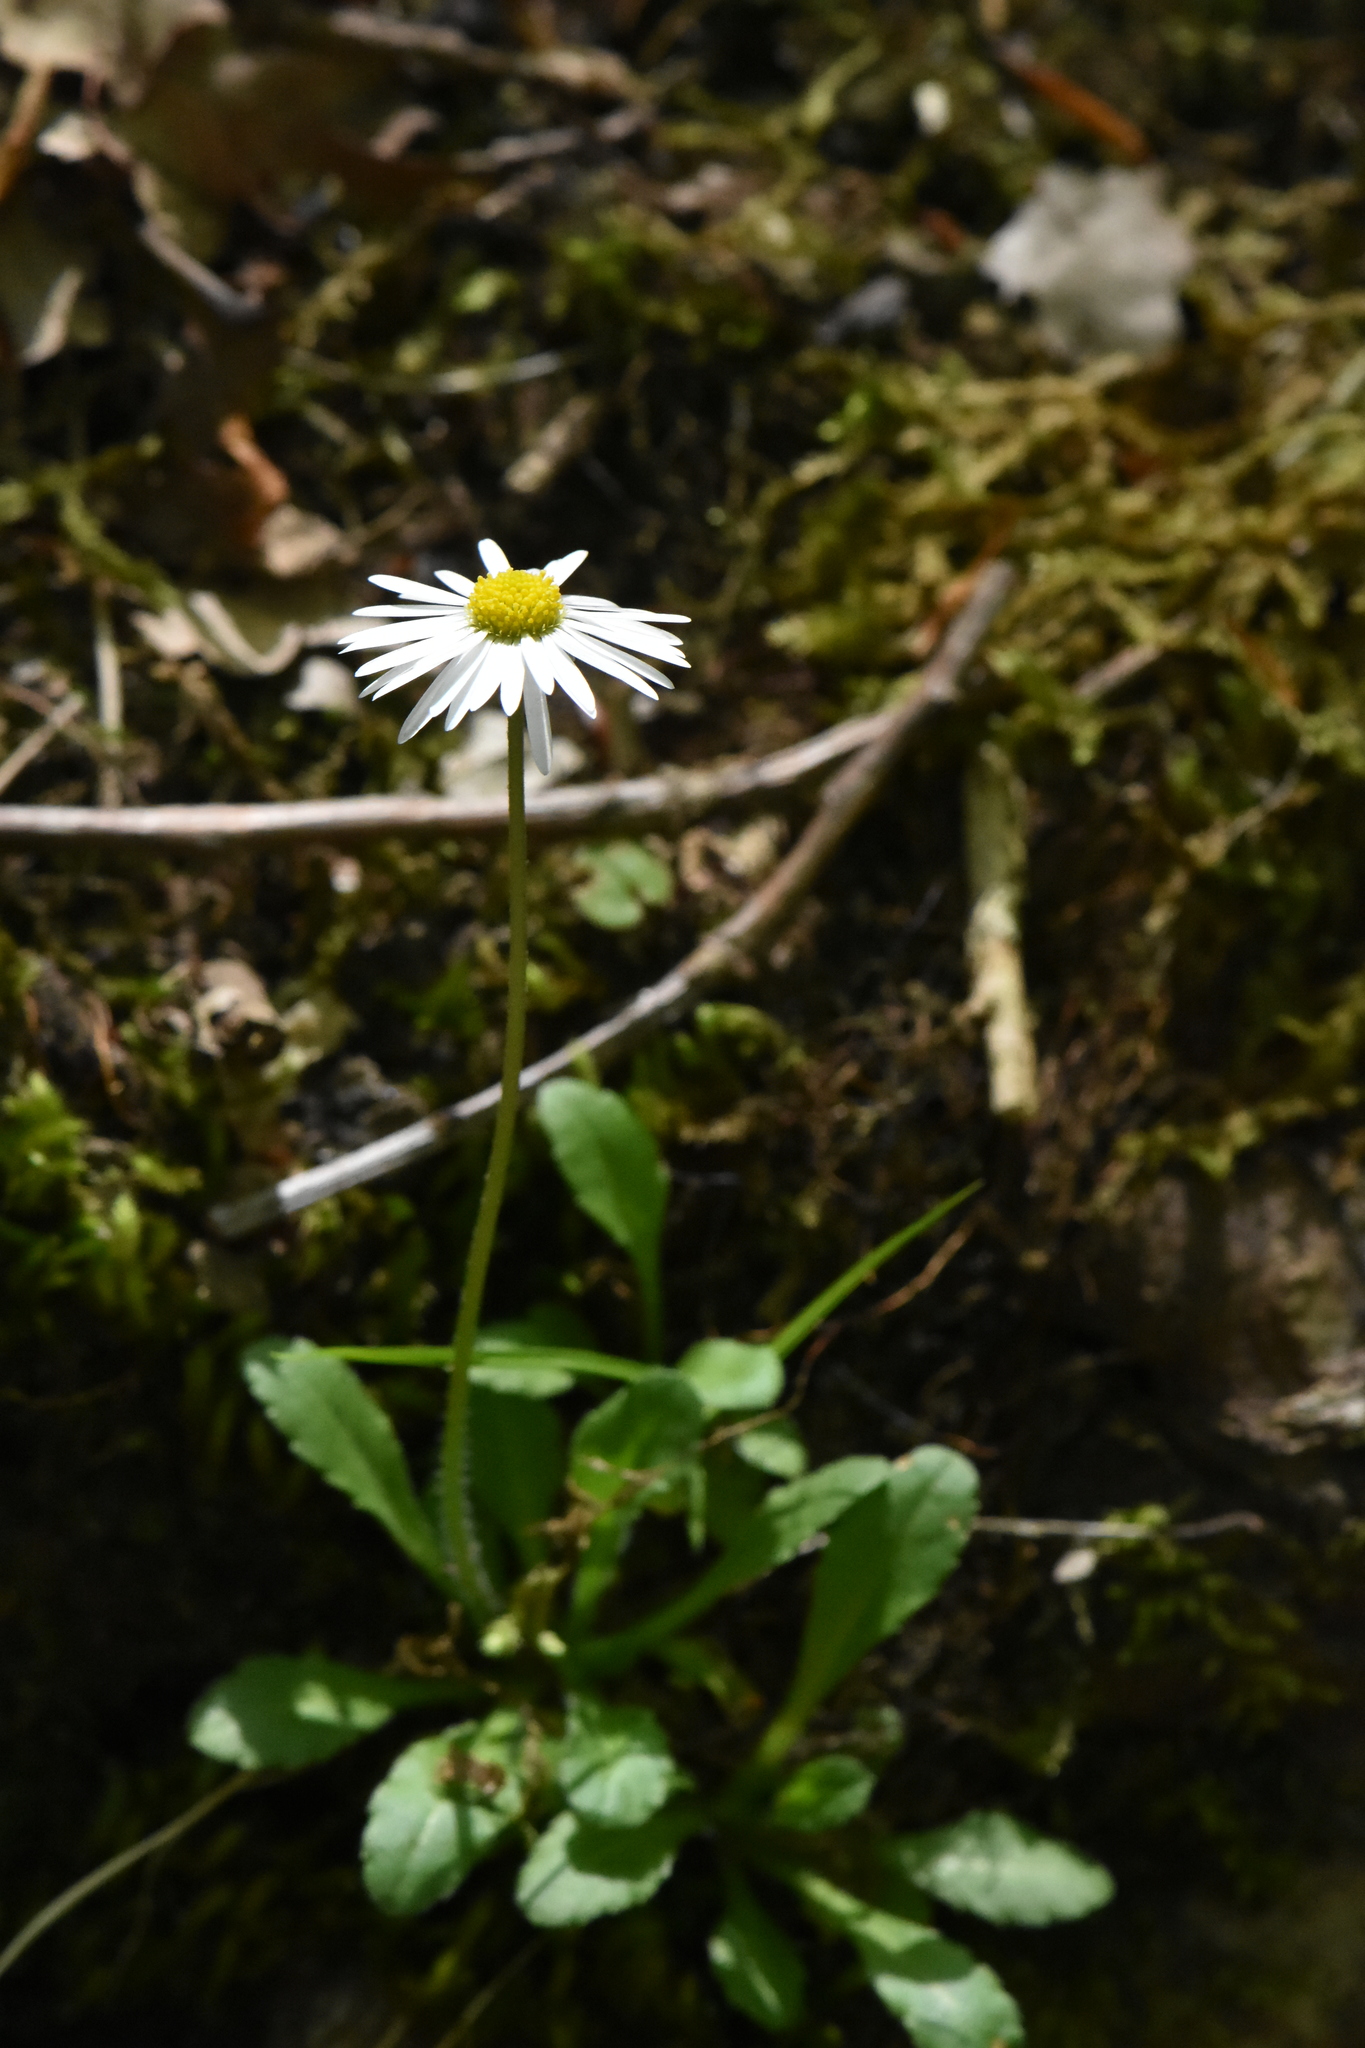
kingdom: Plantae
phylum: Tracheophyta
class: Magnoliopsida
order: Asterales
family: Asteraceae
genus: Bellis
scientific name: Bellis perennis
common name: Lawndaisy
